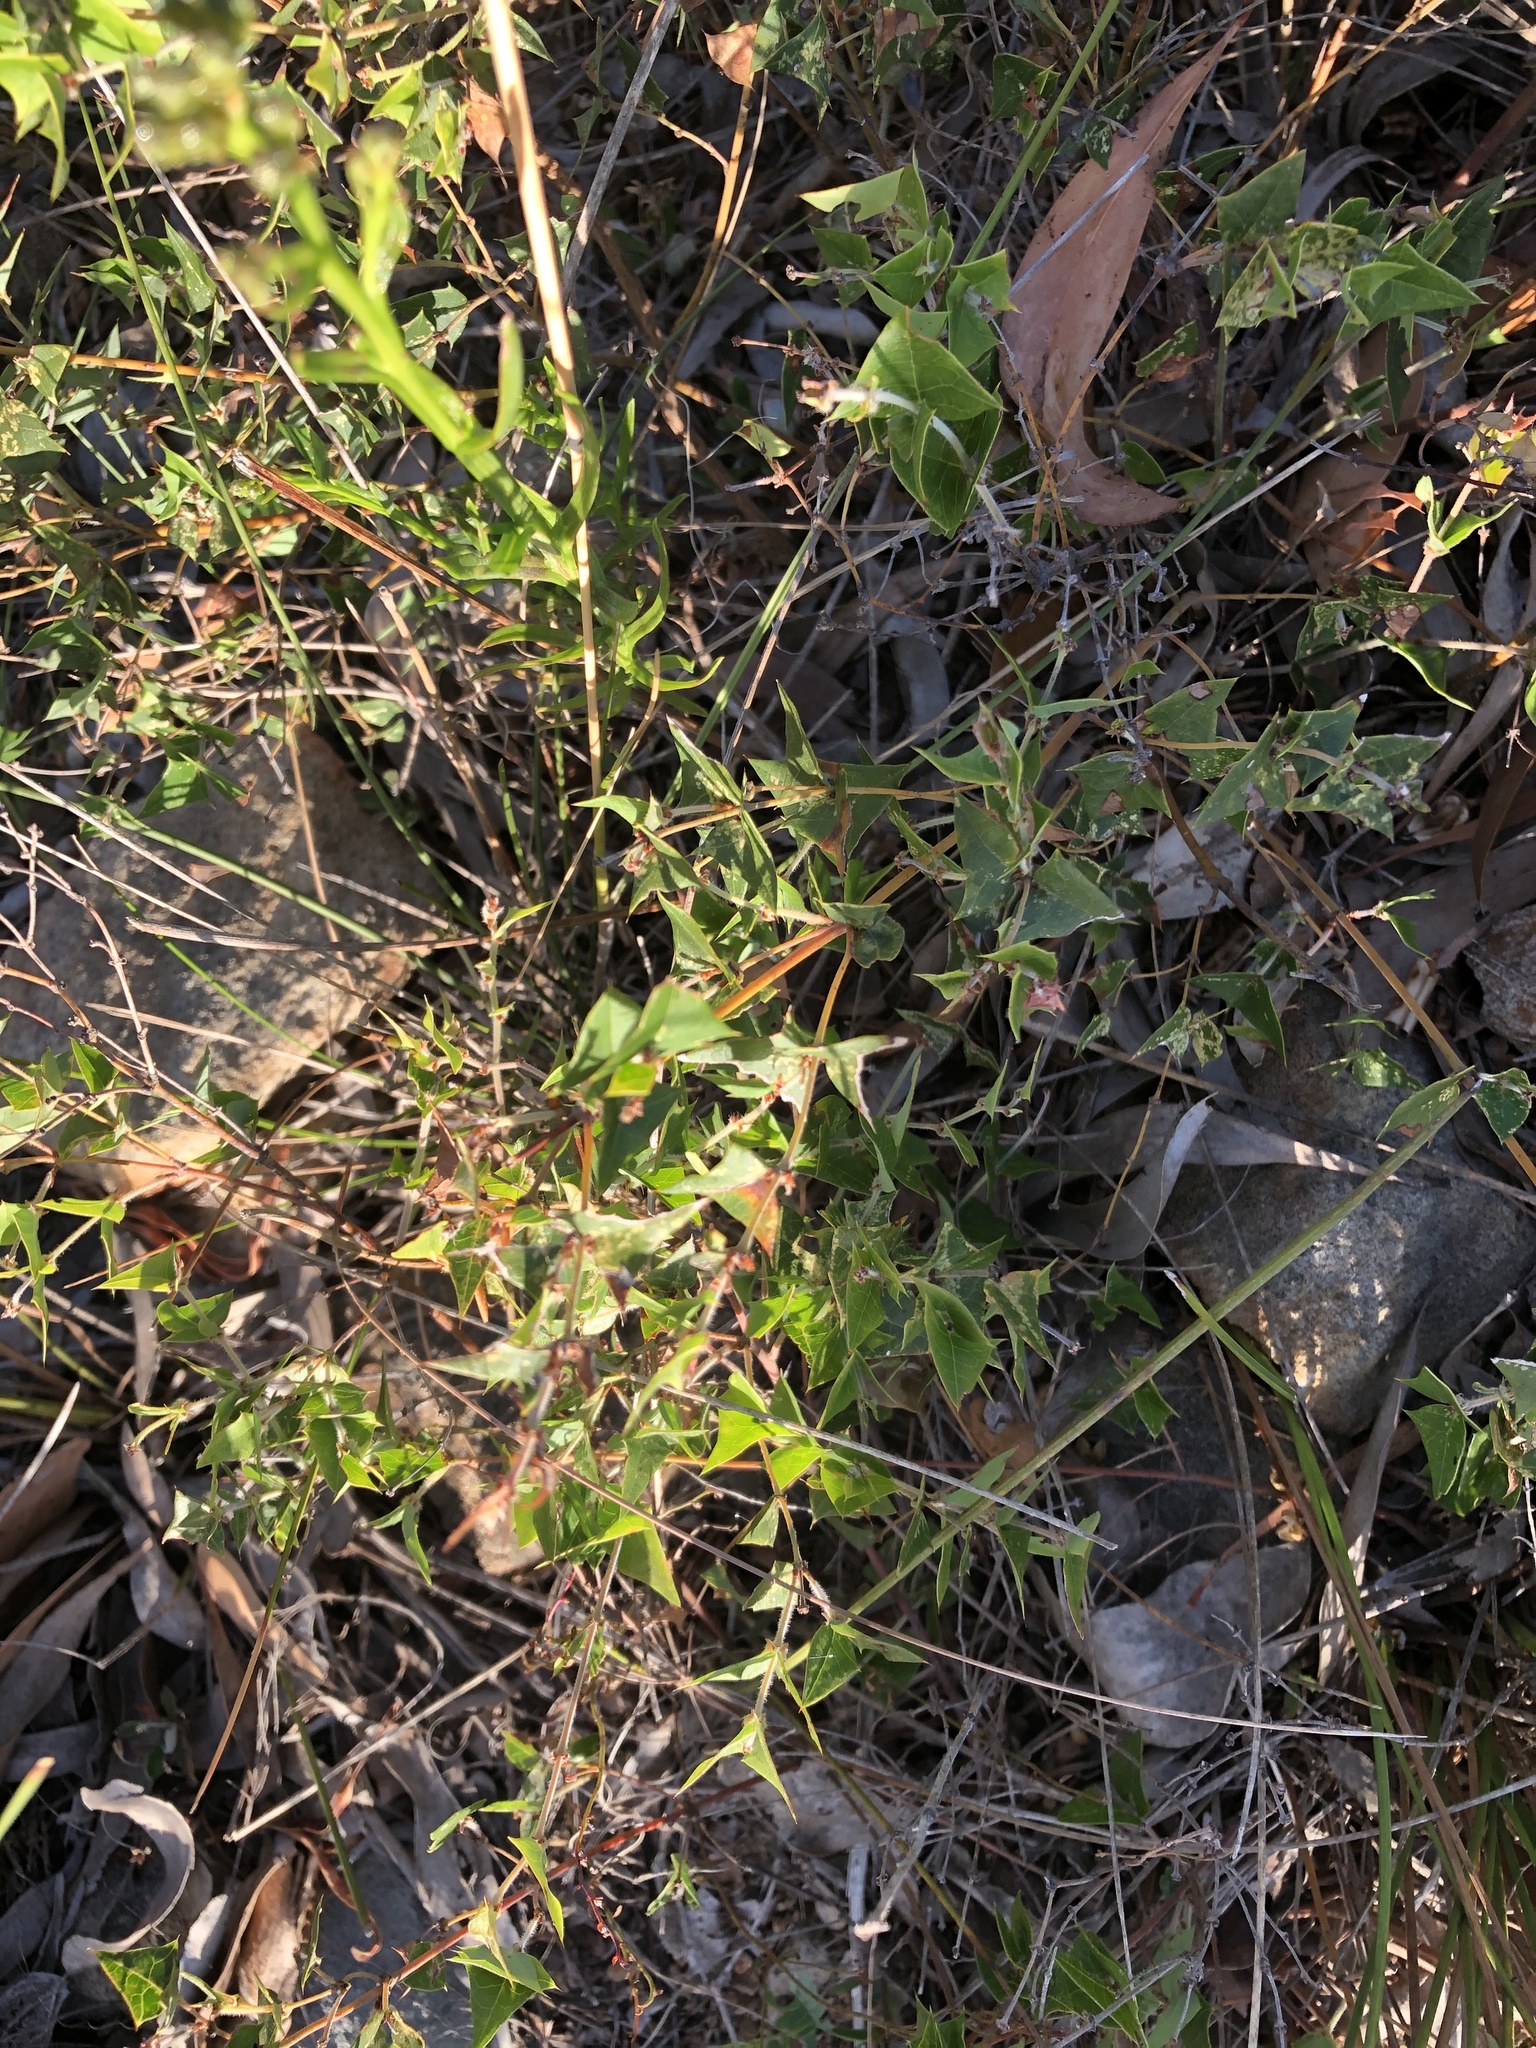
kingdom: Plantae
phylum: Tracheophyta
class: Magnoliopsida
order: Fabales
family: Fabaceae
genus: Platylobium
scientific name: Platylobium obtusangulum
